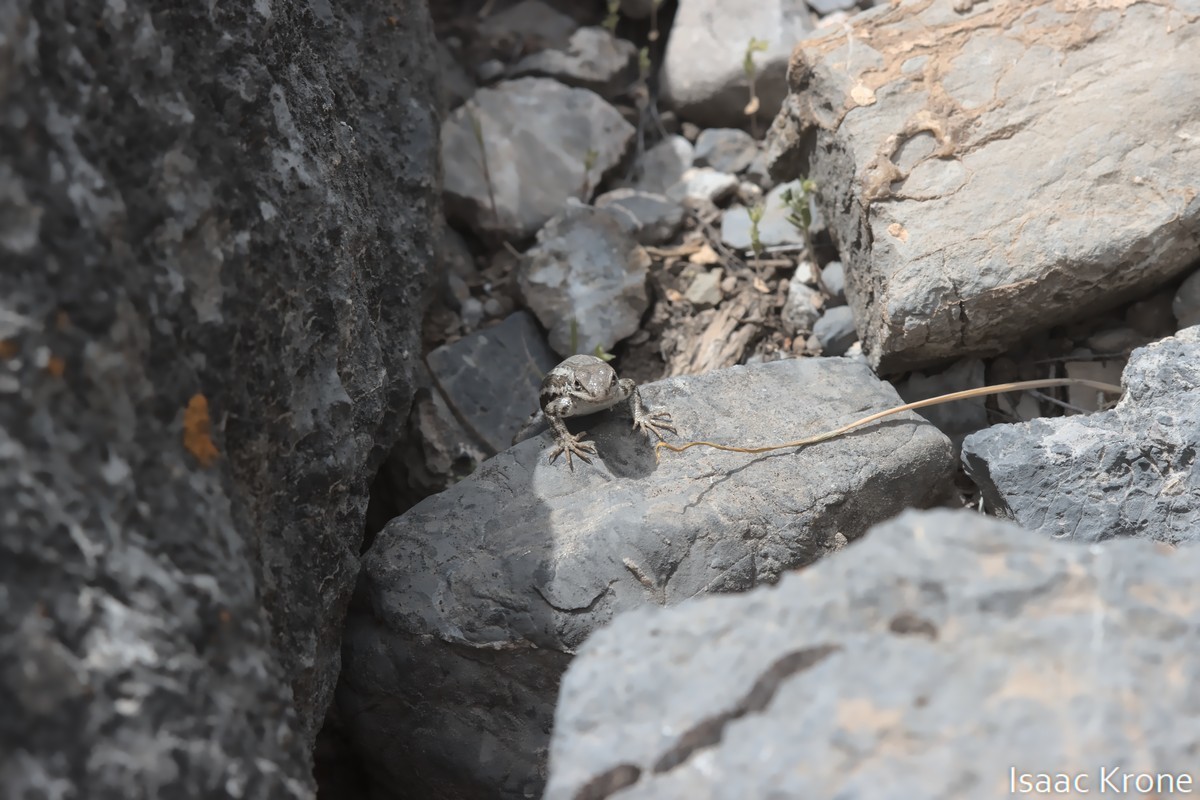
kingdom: Animalia
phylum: Chordata
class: Squamata
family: Phrynosomatidae
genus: Sceloporus
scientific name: Sceloporus graciosus
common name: Sagebrush lizard
